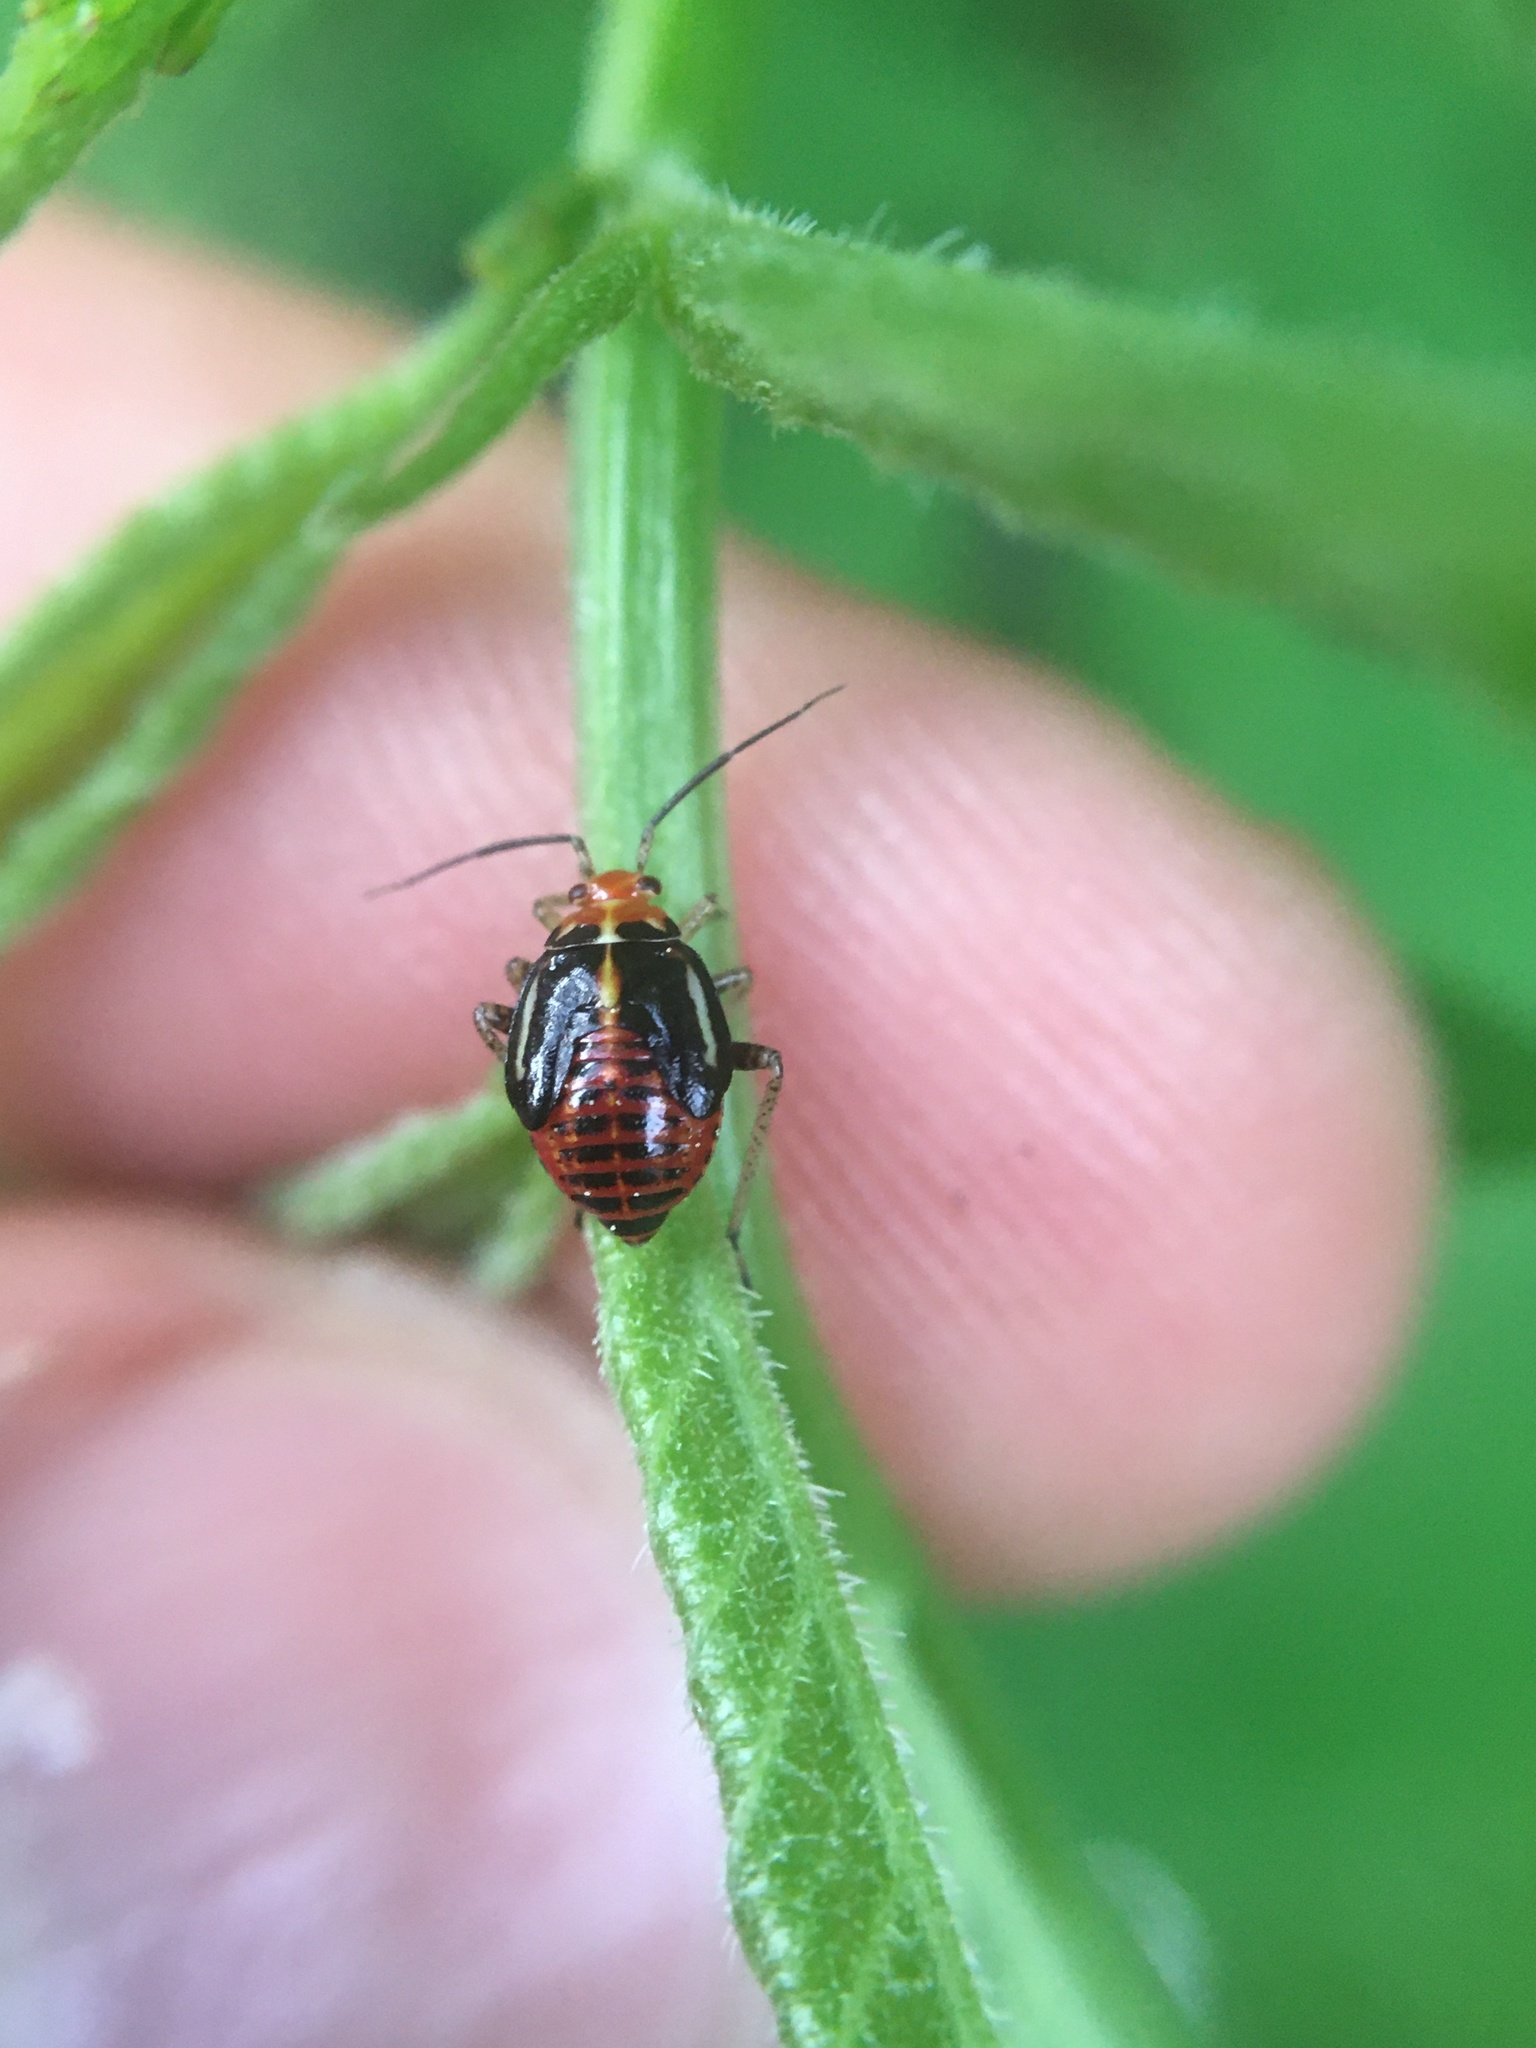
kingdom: Animalia
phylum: Arthropoda
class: Insecta
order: Hemiptera
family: Miridae
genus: Poecilocapsus
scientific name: Poecilocapsus lineatus
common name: Four-lined plant bug
